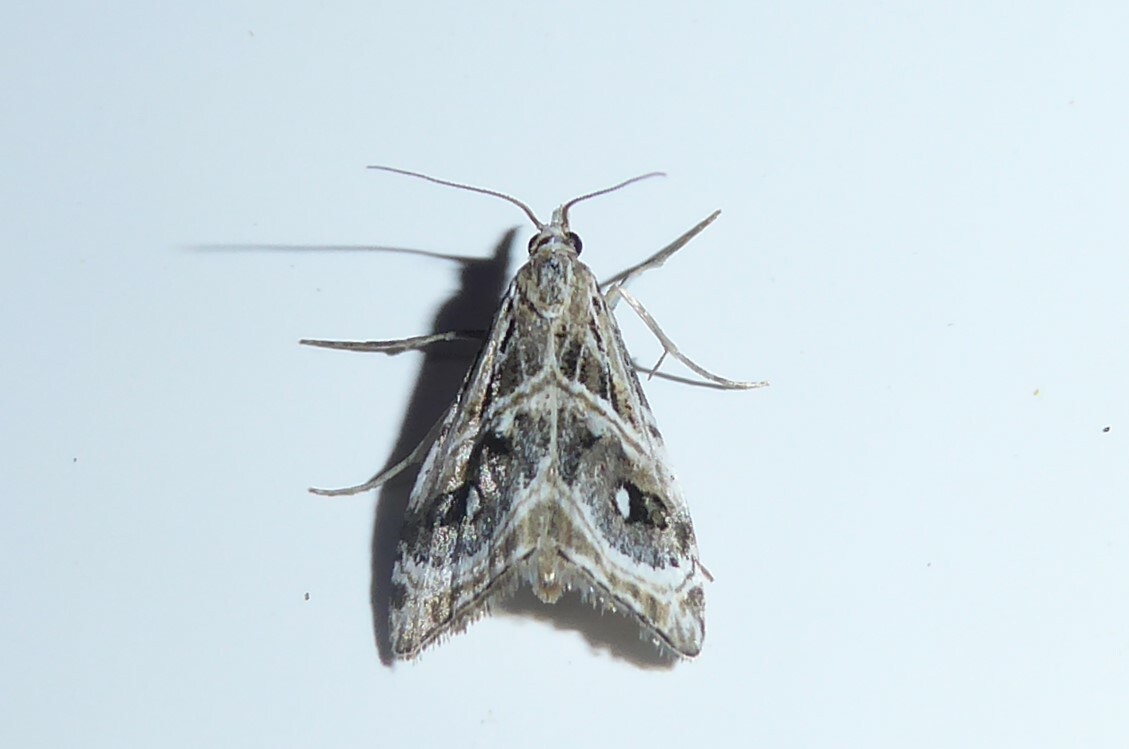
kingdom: Animalia
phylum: Arthropoda
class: Insecta
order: Lepidoptera
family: Crambidae
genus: Gadira
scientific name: Gadira acerella
